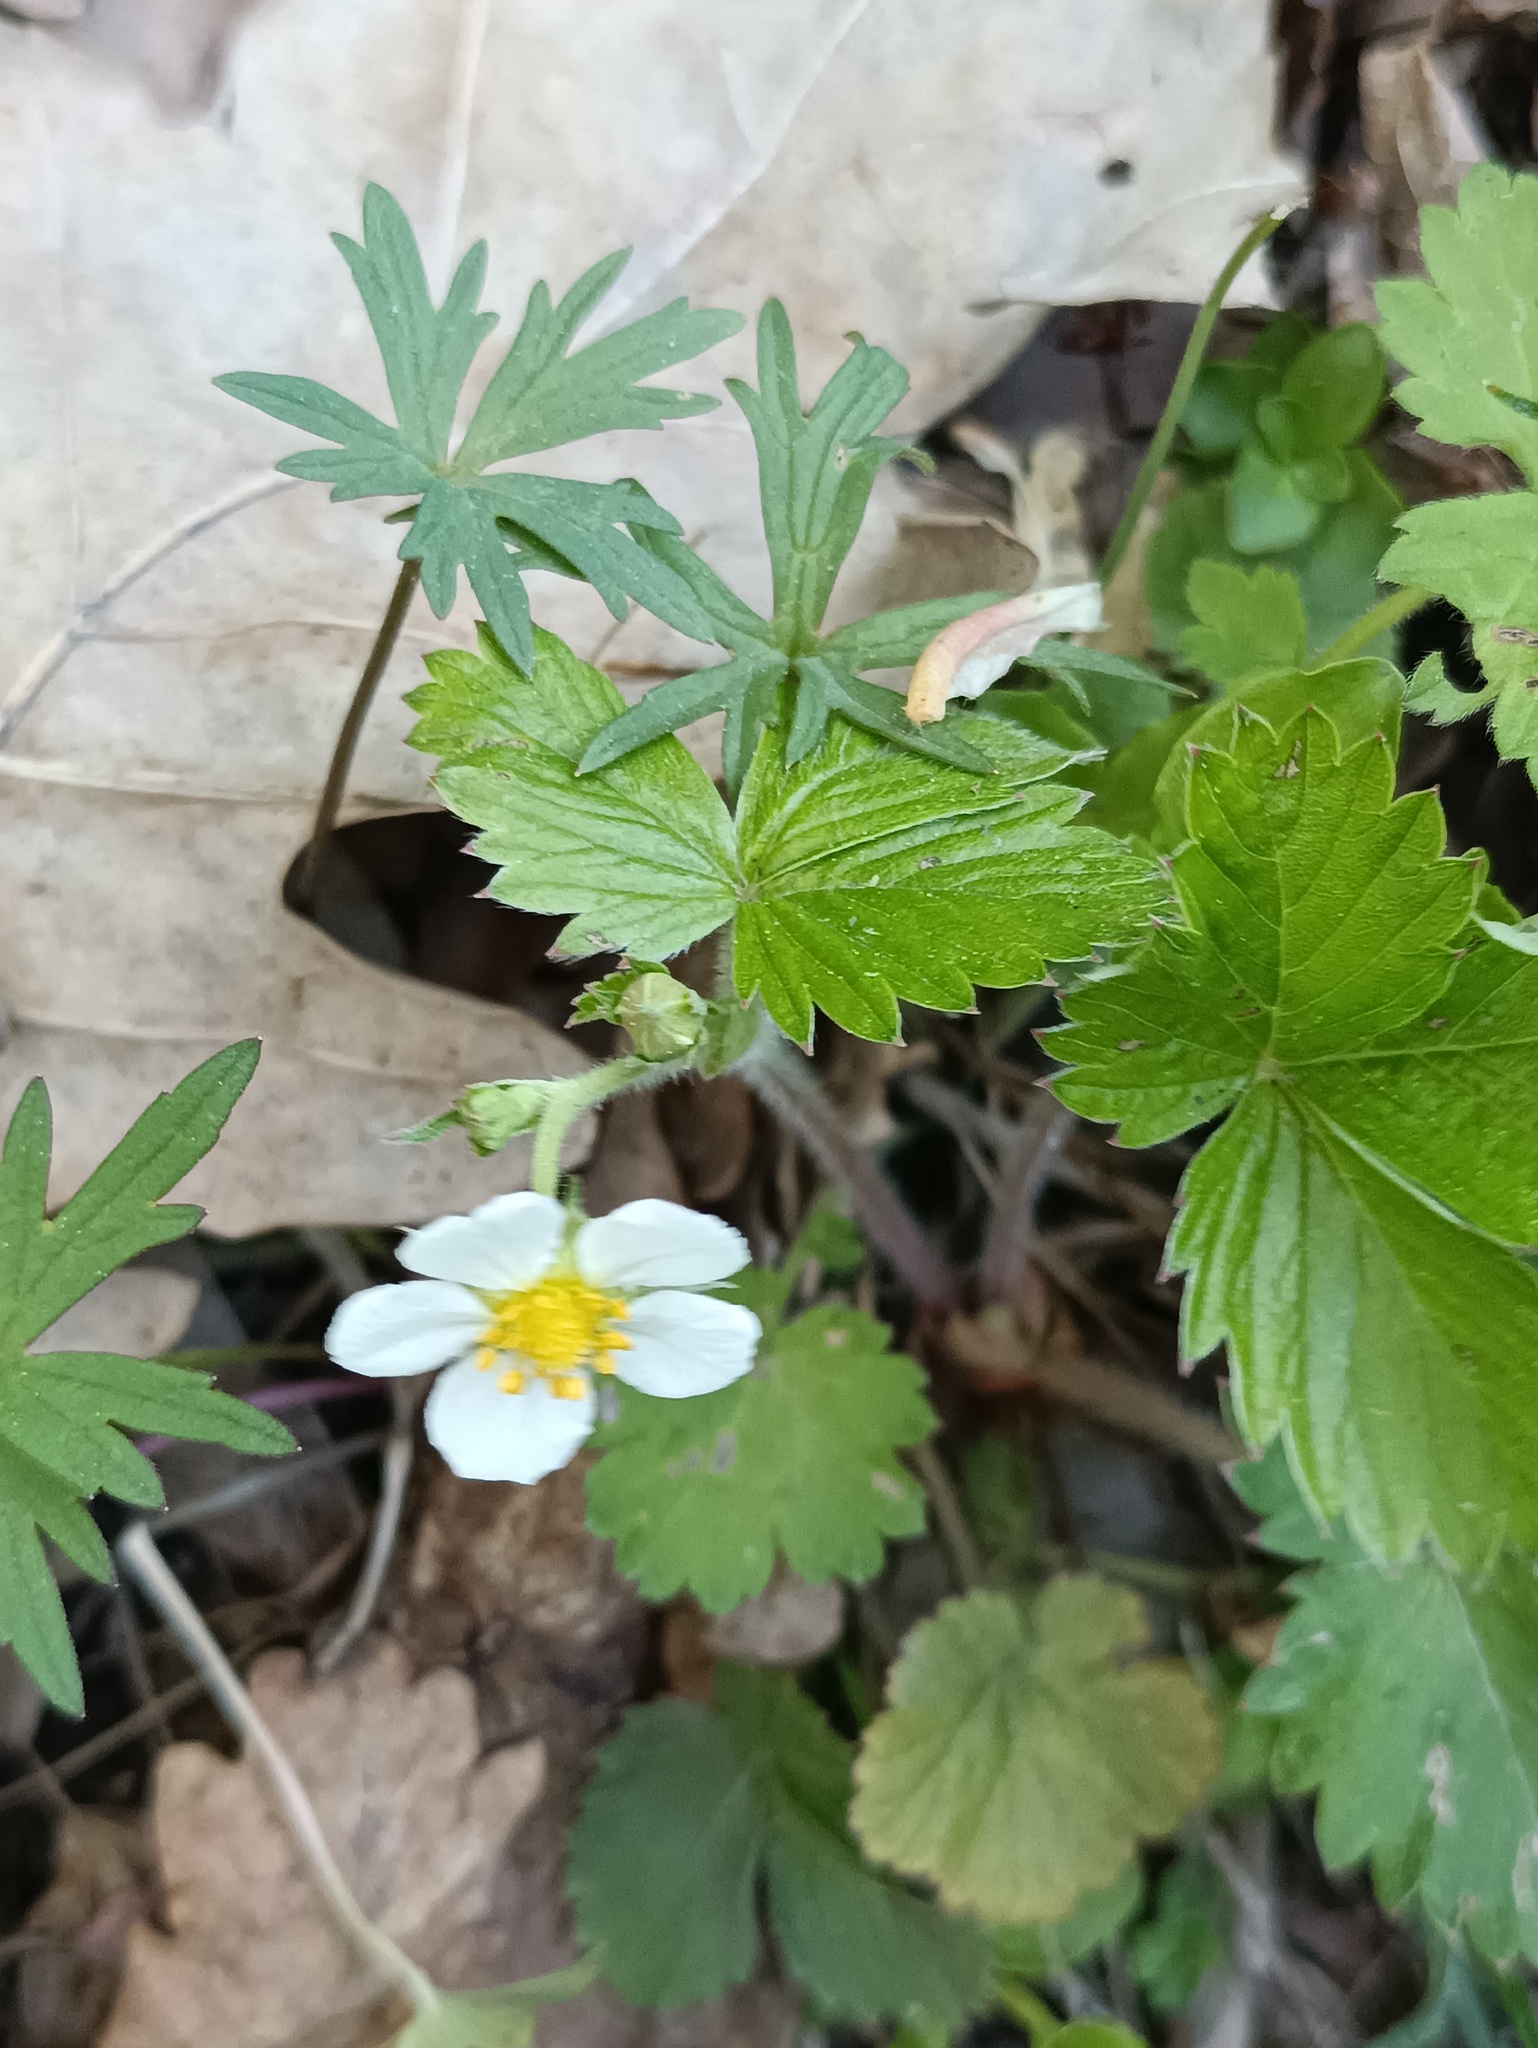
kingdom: Plantae
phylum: Tracheophyta
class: Magnoliopsida
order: Rosales
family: Rosaceae
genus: Fragaria
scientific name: Fragaria vesca
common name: Wild strawberry
